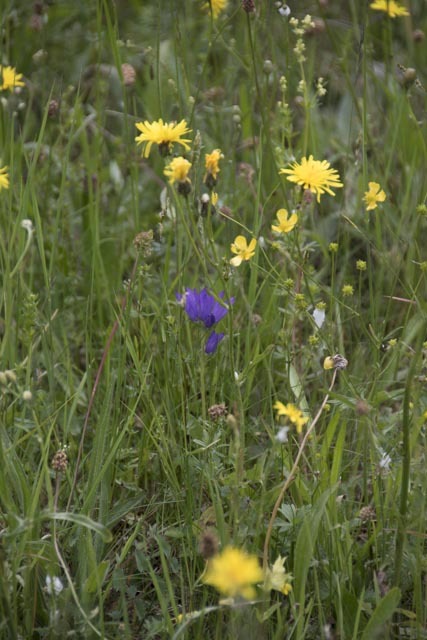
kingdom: Plantae
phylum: Tracheophyta
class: Magnoliopsida
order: Asterales
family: Campanulaceae
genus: Campanula
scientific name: Campanula glomerata
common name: Clustered bellflower
